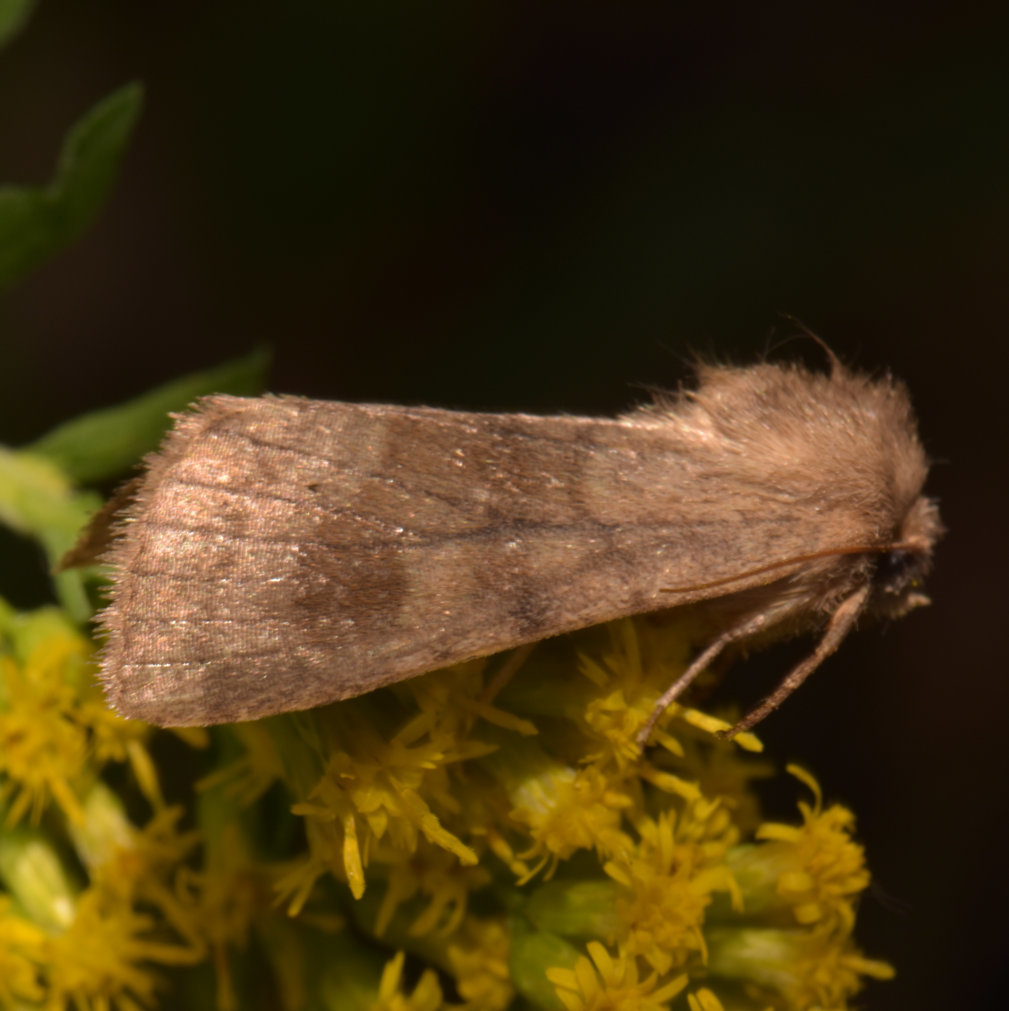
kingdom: Animalia
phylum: Arthropoda
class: Insecta
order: Lepidoptera
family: Noctuidae
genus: Nephelodes
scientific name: Nephelodes minians
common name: Bronzed cutworm
